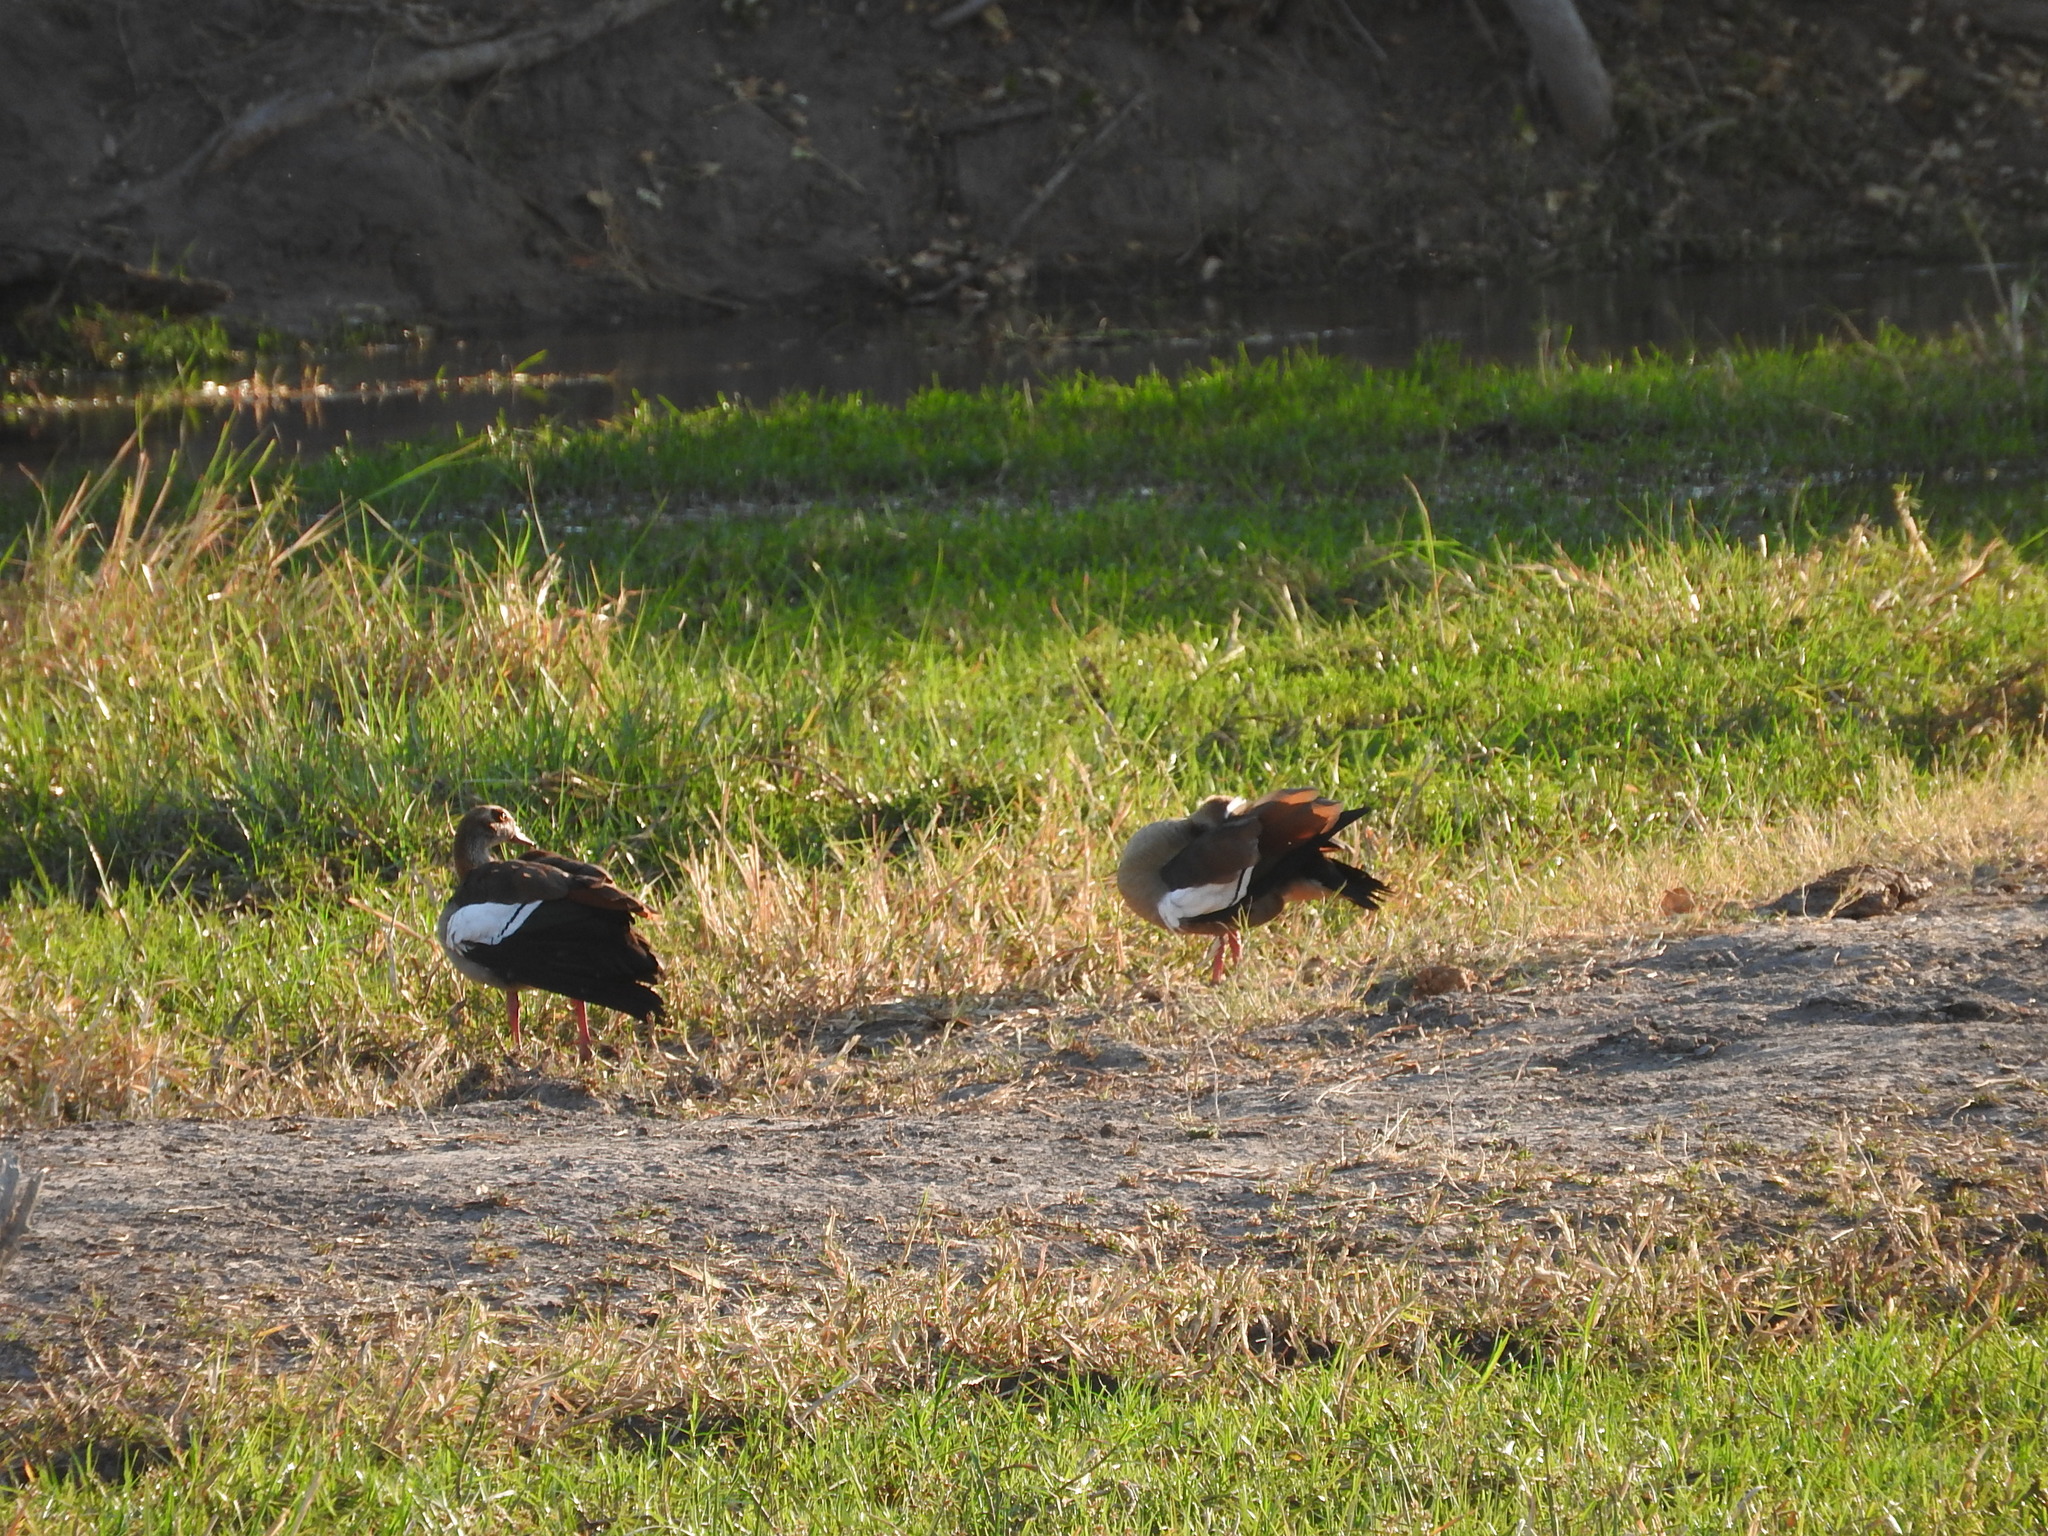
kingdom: Animalia
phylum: Chordata
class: Aves
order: Anseriformes
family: Anatidae
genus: Alopochen
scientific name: Alopochen aegyptiaca
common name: Egyptian goose
